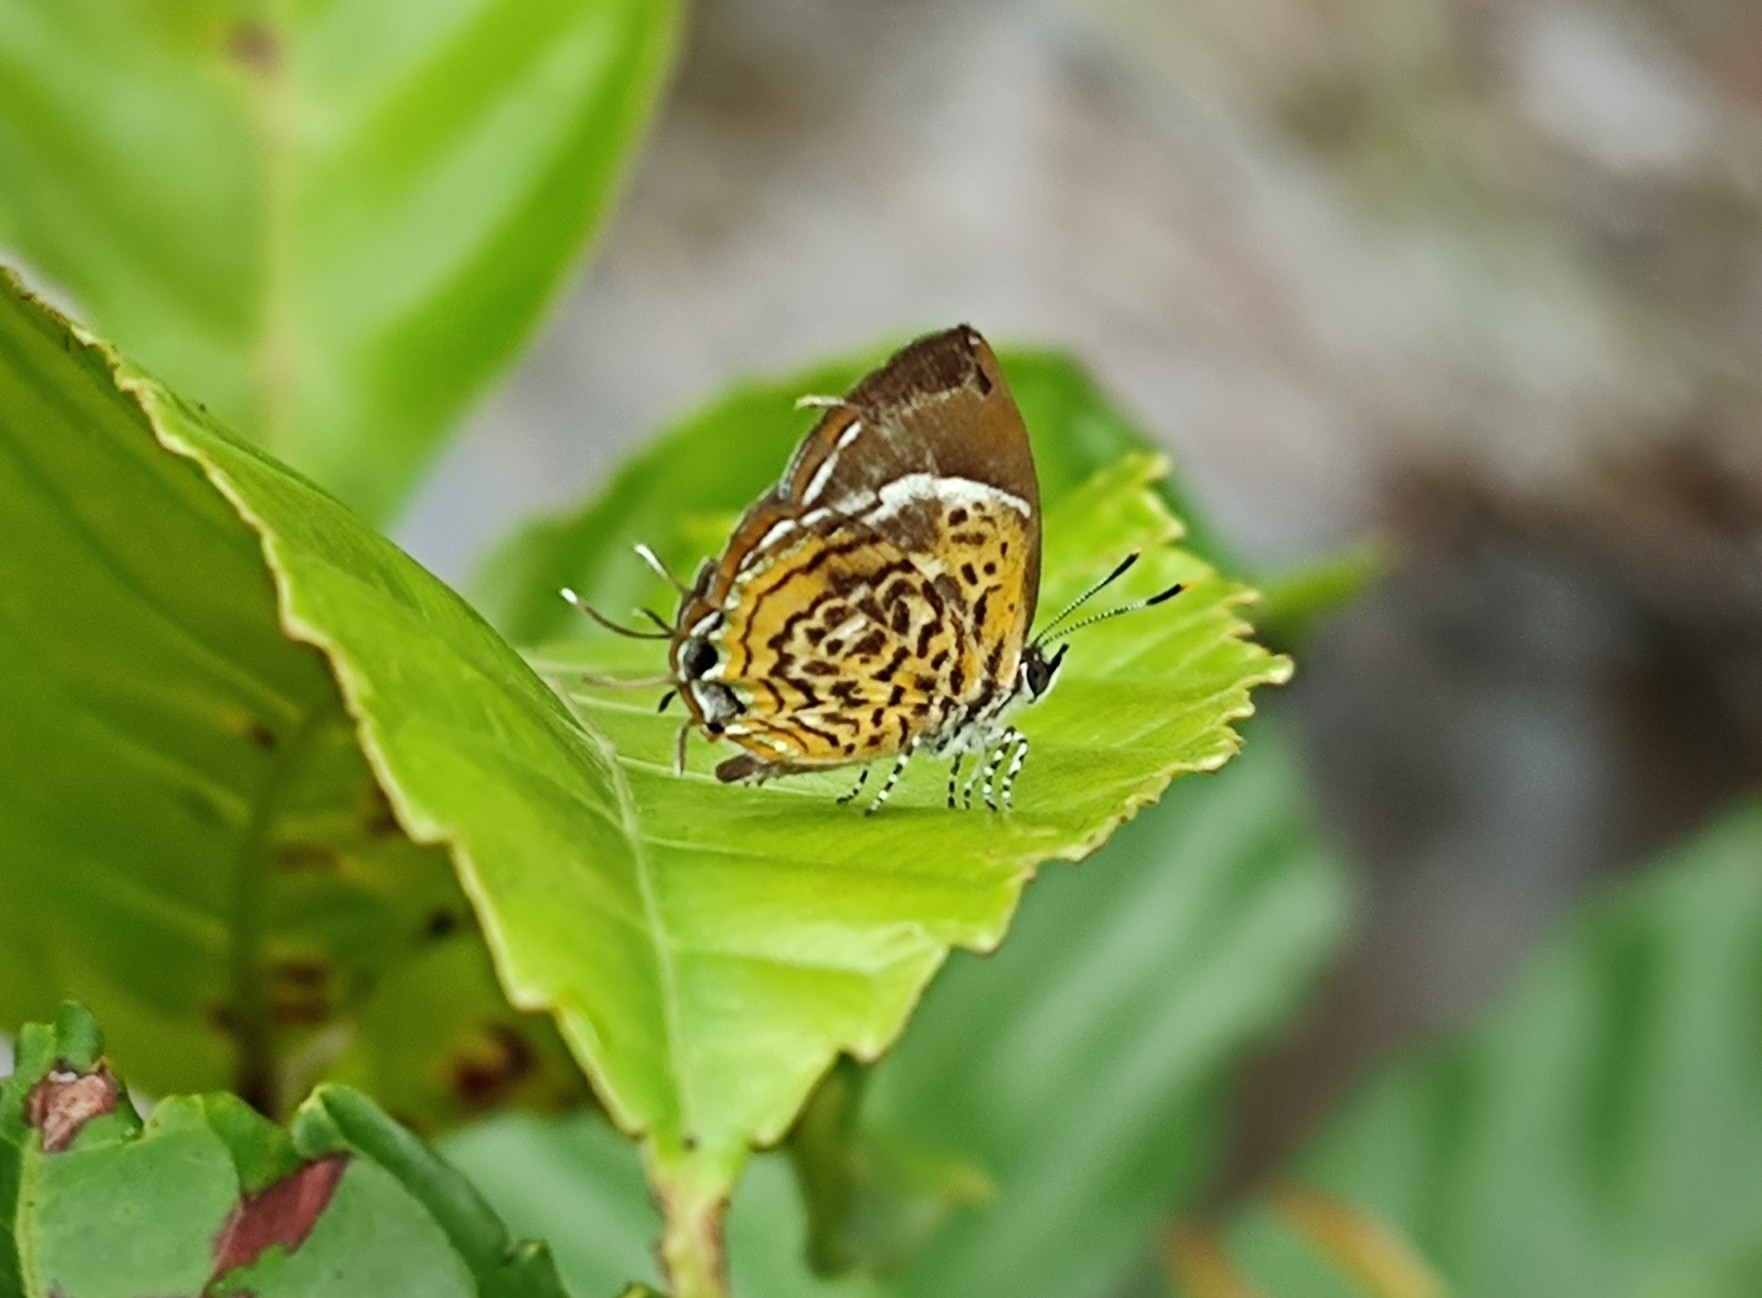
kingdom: Animalia
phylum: Arthropoda
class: Insecta
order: Lepidoptera
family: Lycaenidae
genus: Rathinda
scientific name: Rathinda amor
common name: Monkey puzzle
